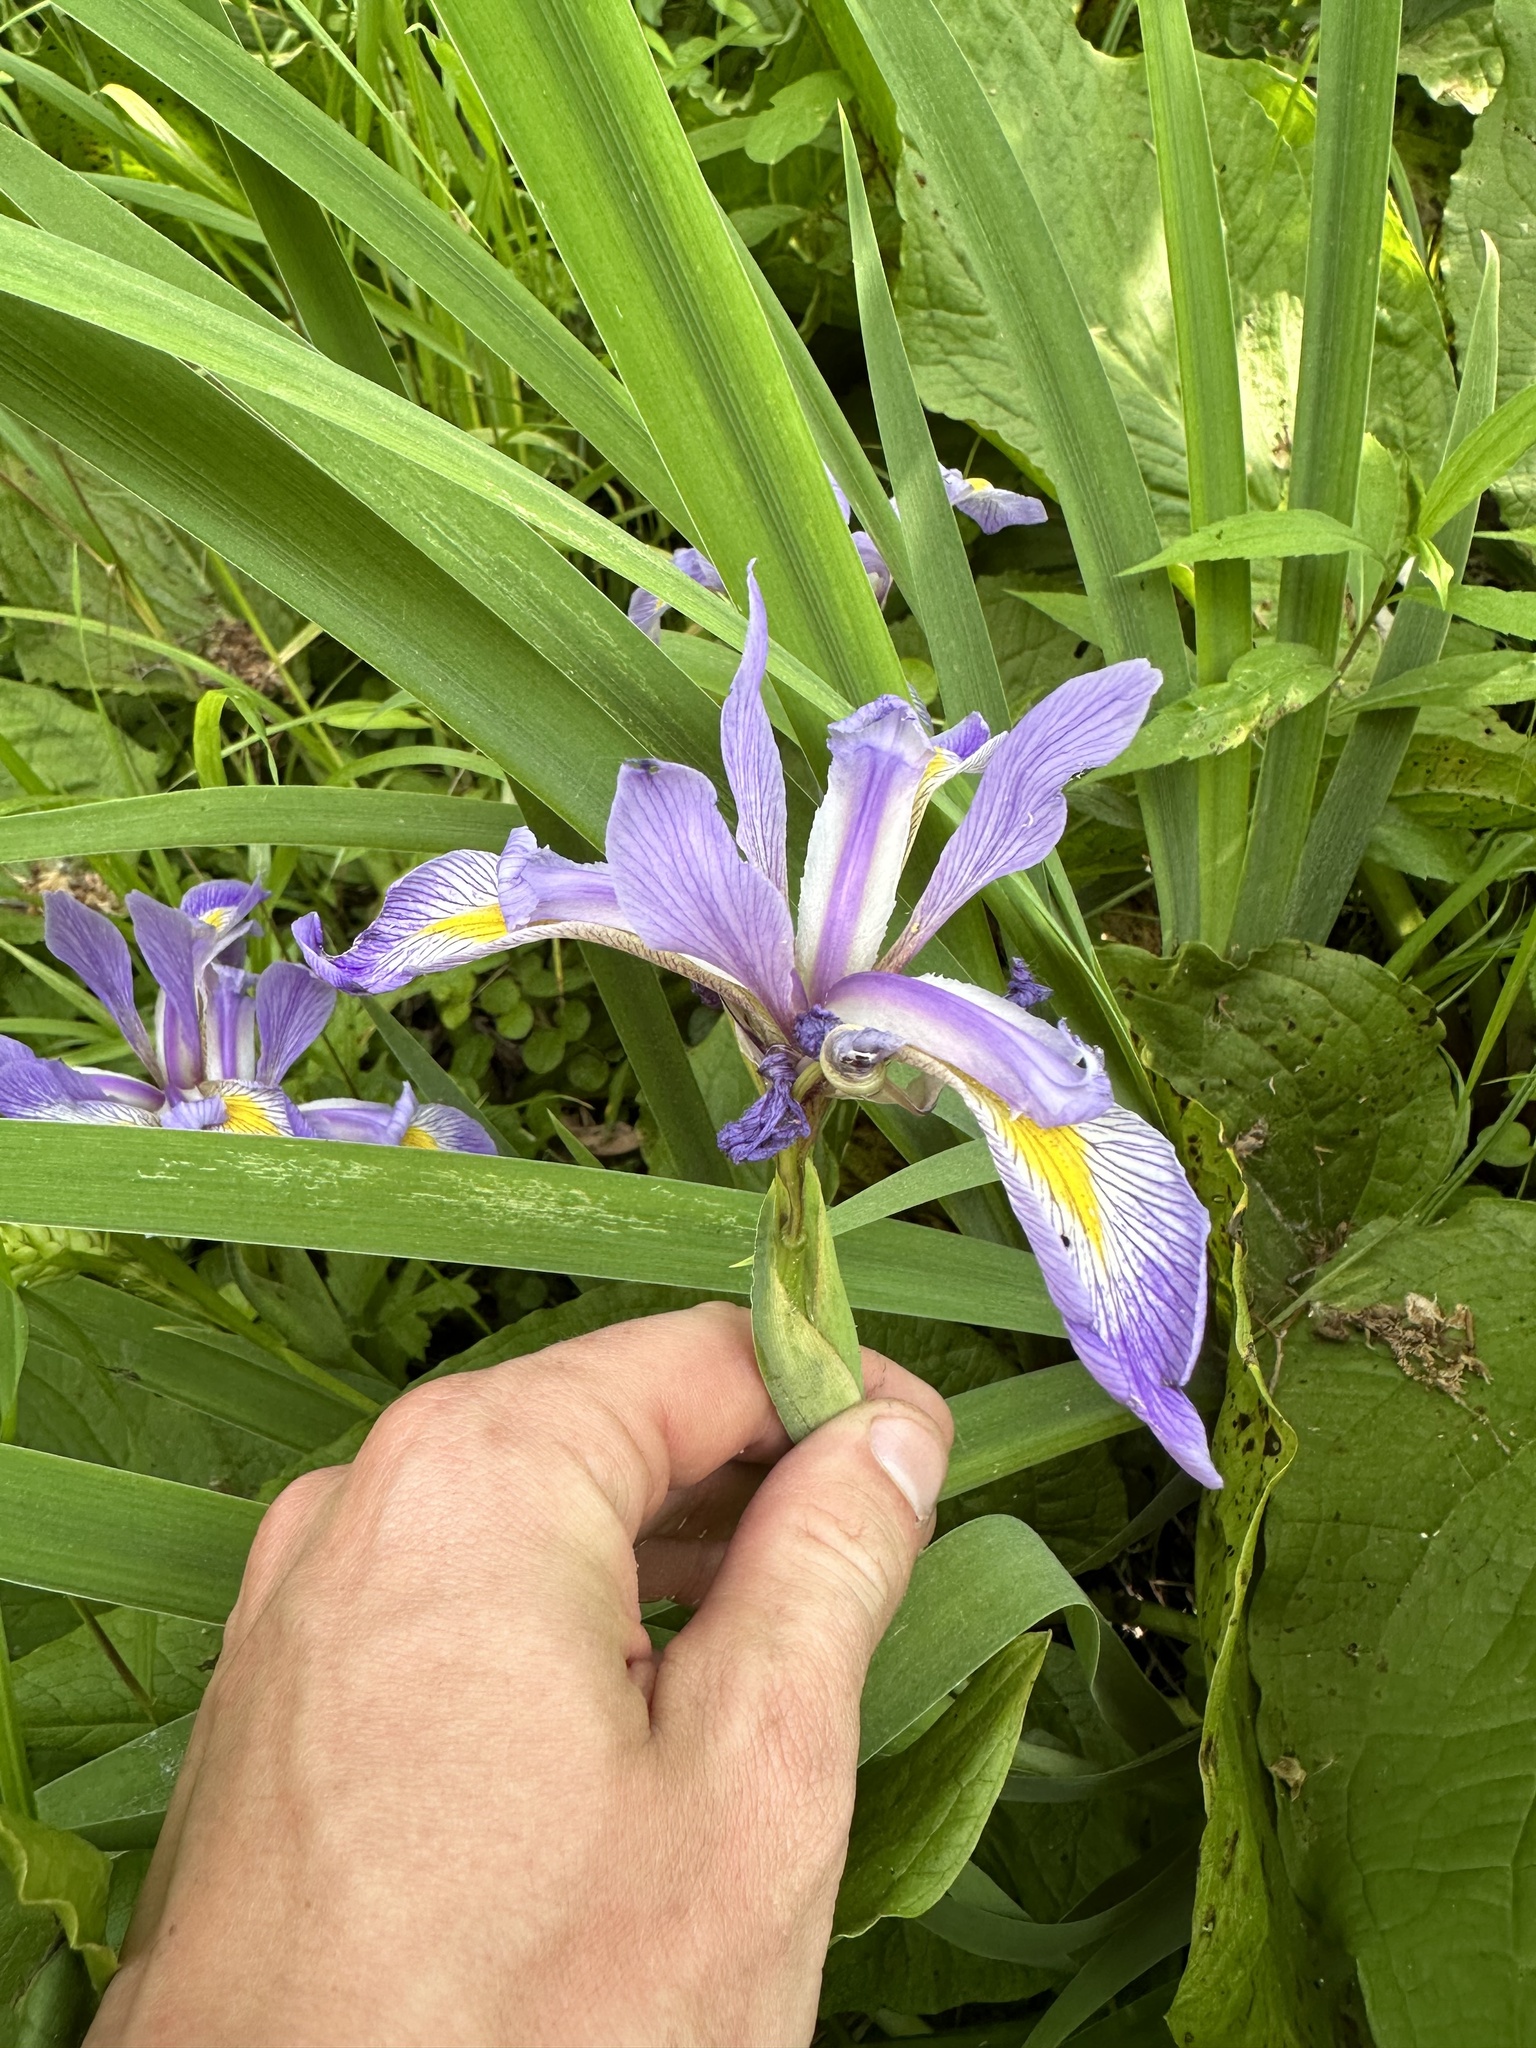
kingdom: Plantae
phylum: Tracheophyta
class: Liliopsida
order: Asparagales
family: Iridaceae
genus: Iris
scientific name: Iris virginica
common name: Southern blue flag
